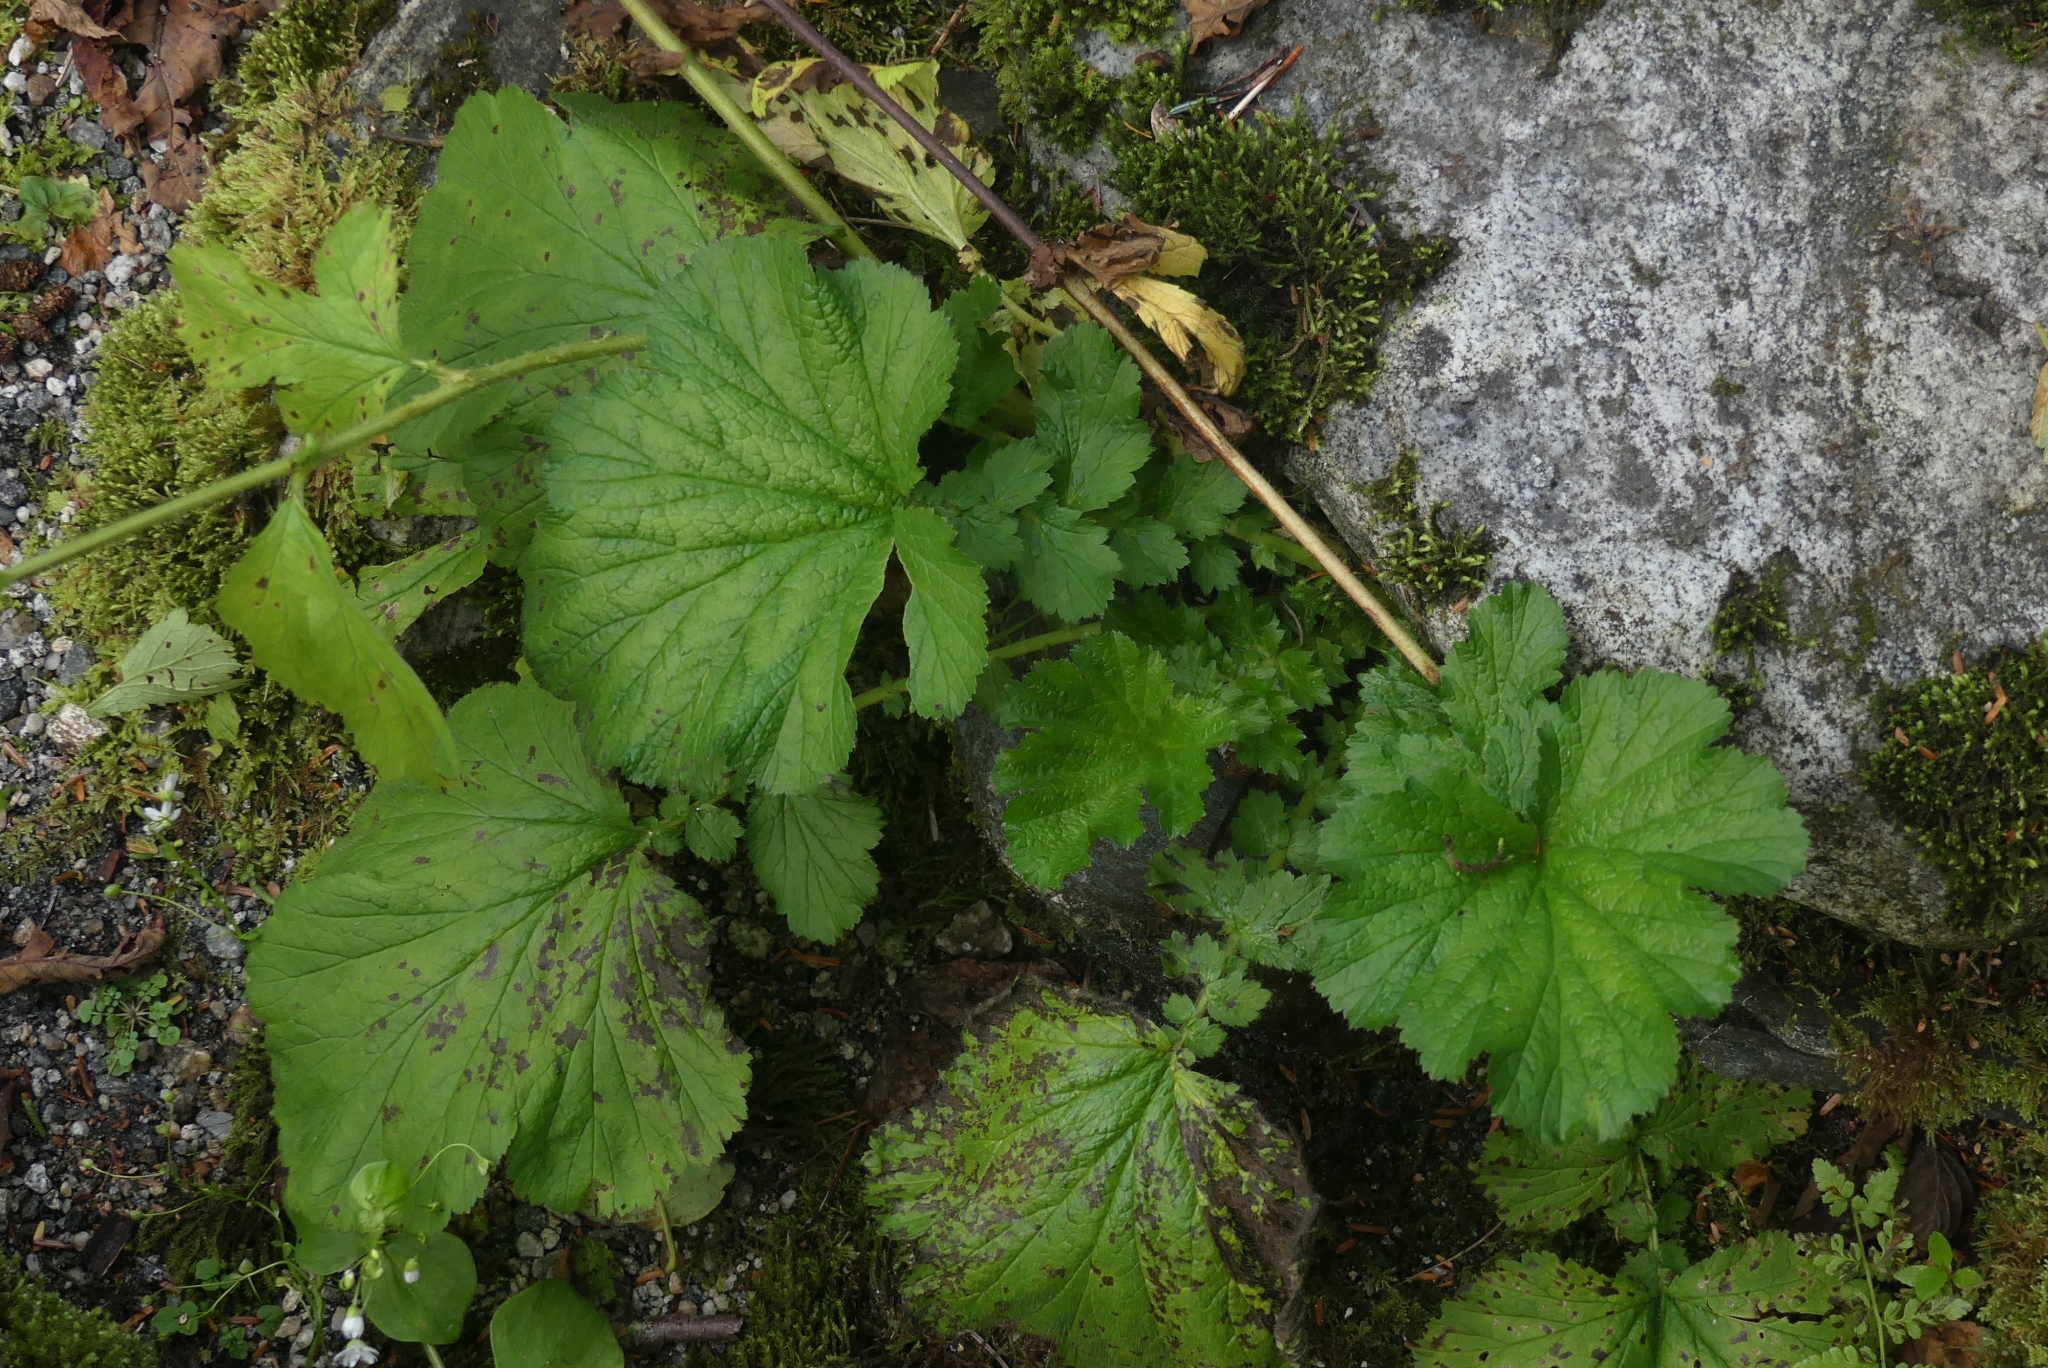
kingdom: Plantae
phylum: Tracheophyta
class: Magnoliopsida
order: Rosales
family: Rosaceae
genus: Geum
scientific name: Geum macrophyllum
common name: Large-leaved avens
